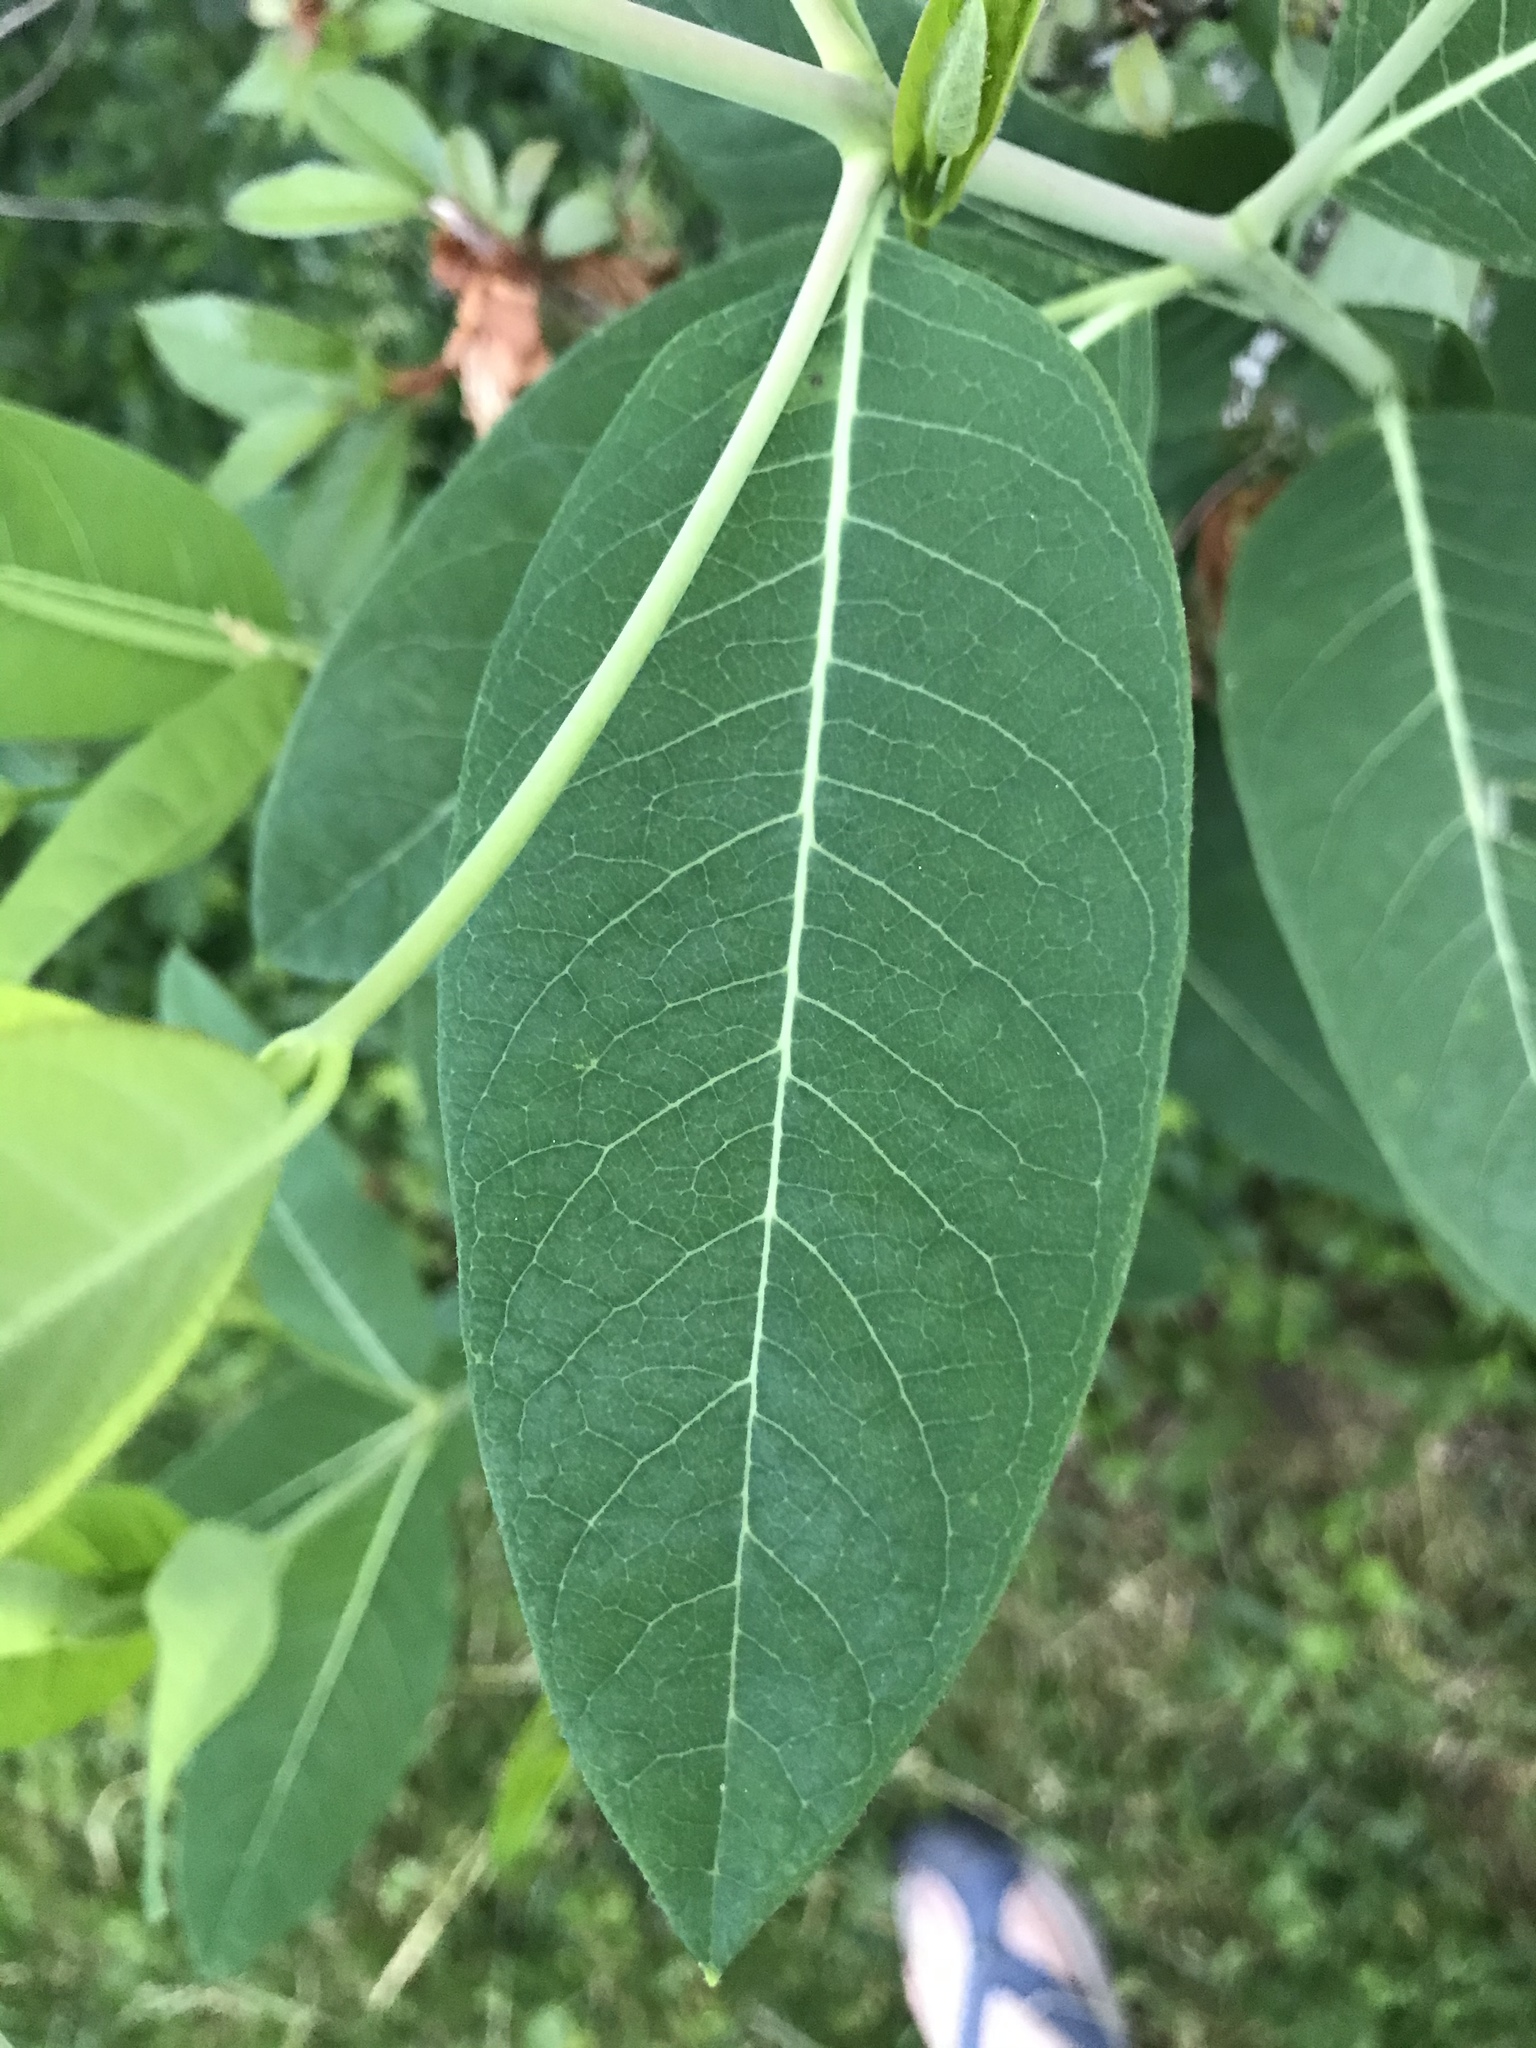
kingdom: Plantae
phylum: Tracheophyta
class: Magnoliopsida
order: Gentianales
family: Apocynaceae
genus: Apocynum
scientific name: Apocynum cannabinum
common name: Hemp dogbane
